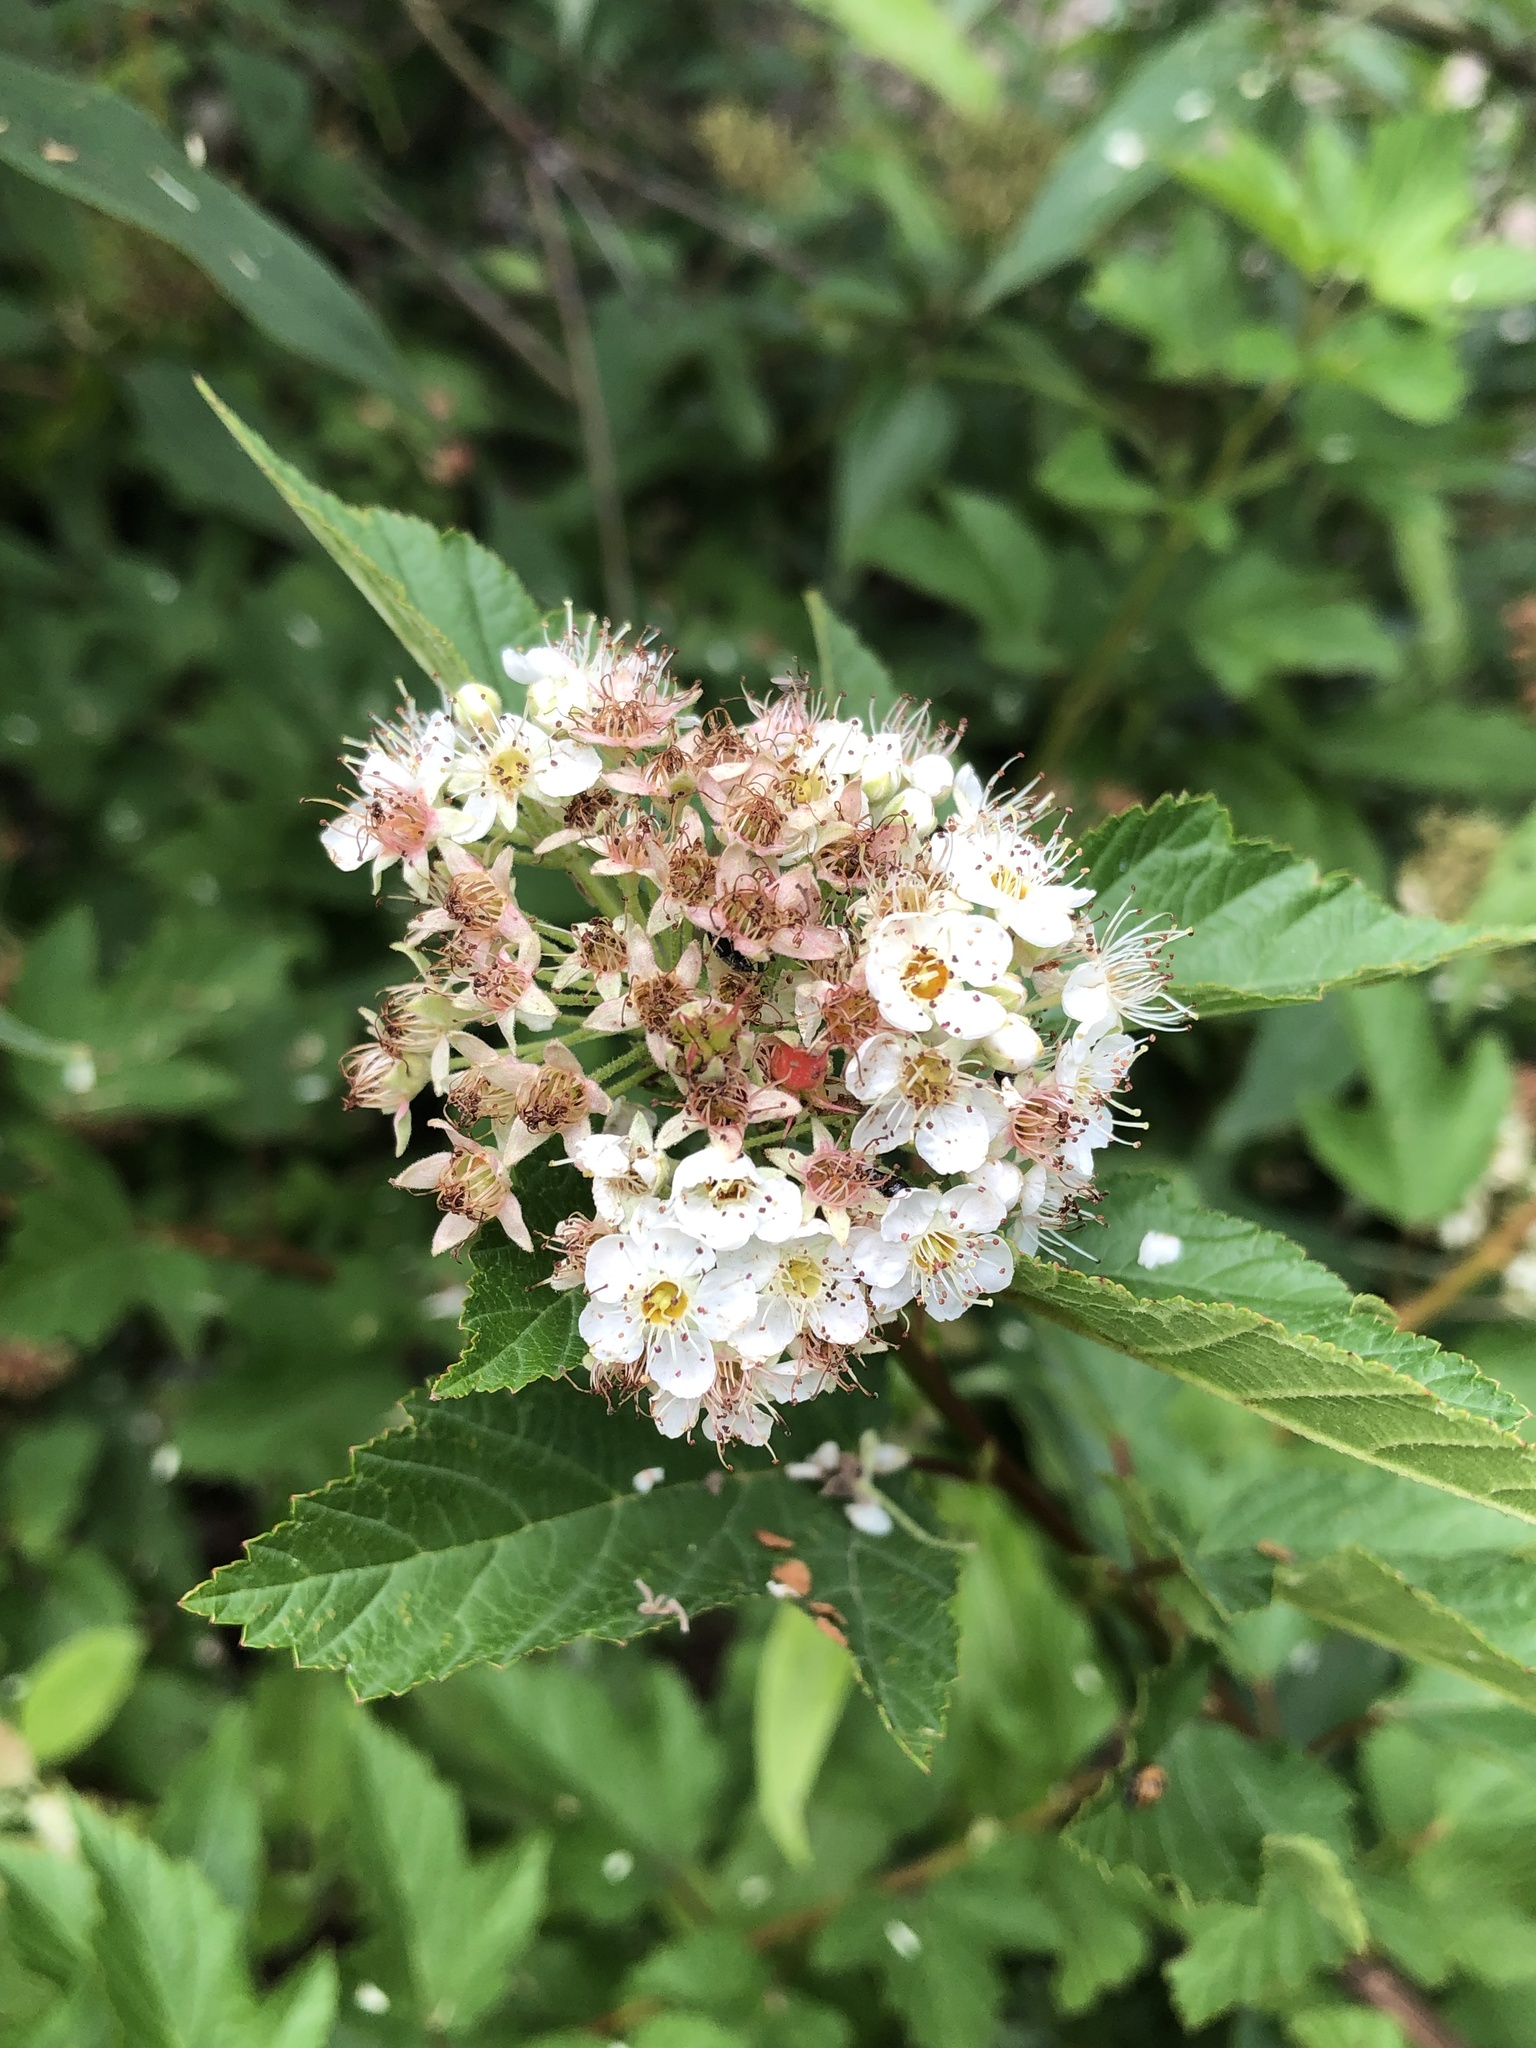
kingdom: Plantae
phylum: Tracheophyta
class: Magnoliopsida
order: Rosales
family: Rosaceae
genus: Physocarpus
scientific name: Physocarpus opulifolius
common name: Ninebark
